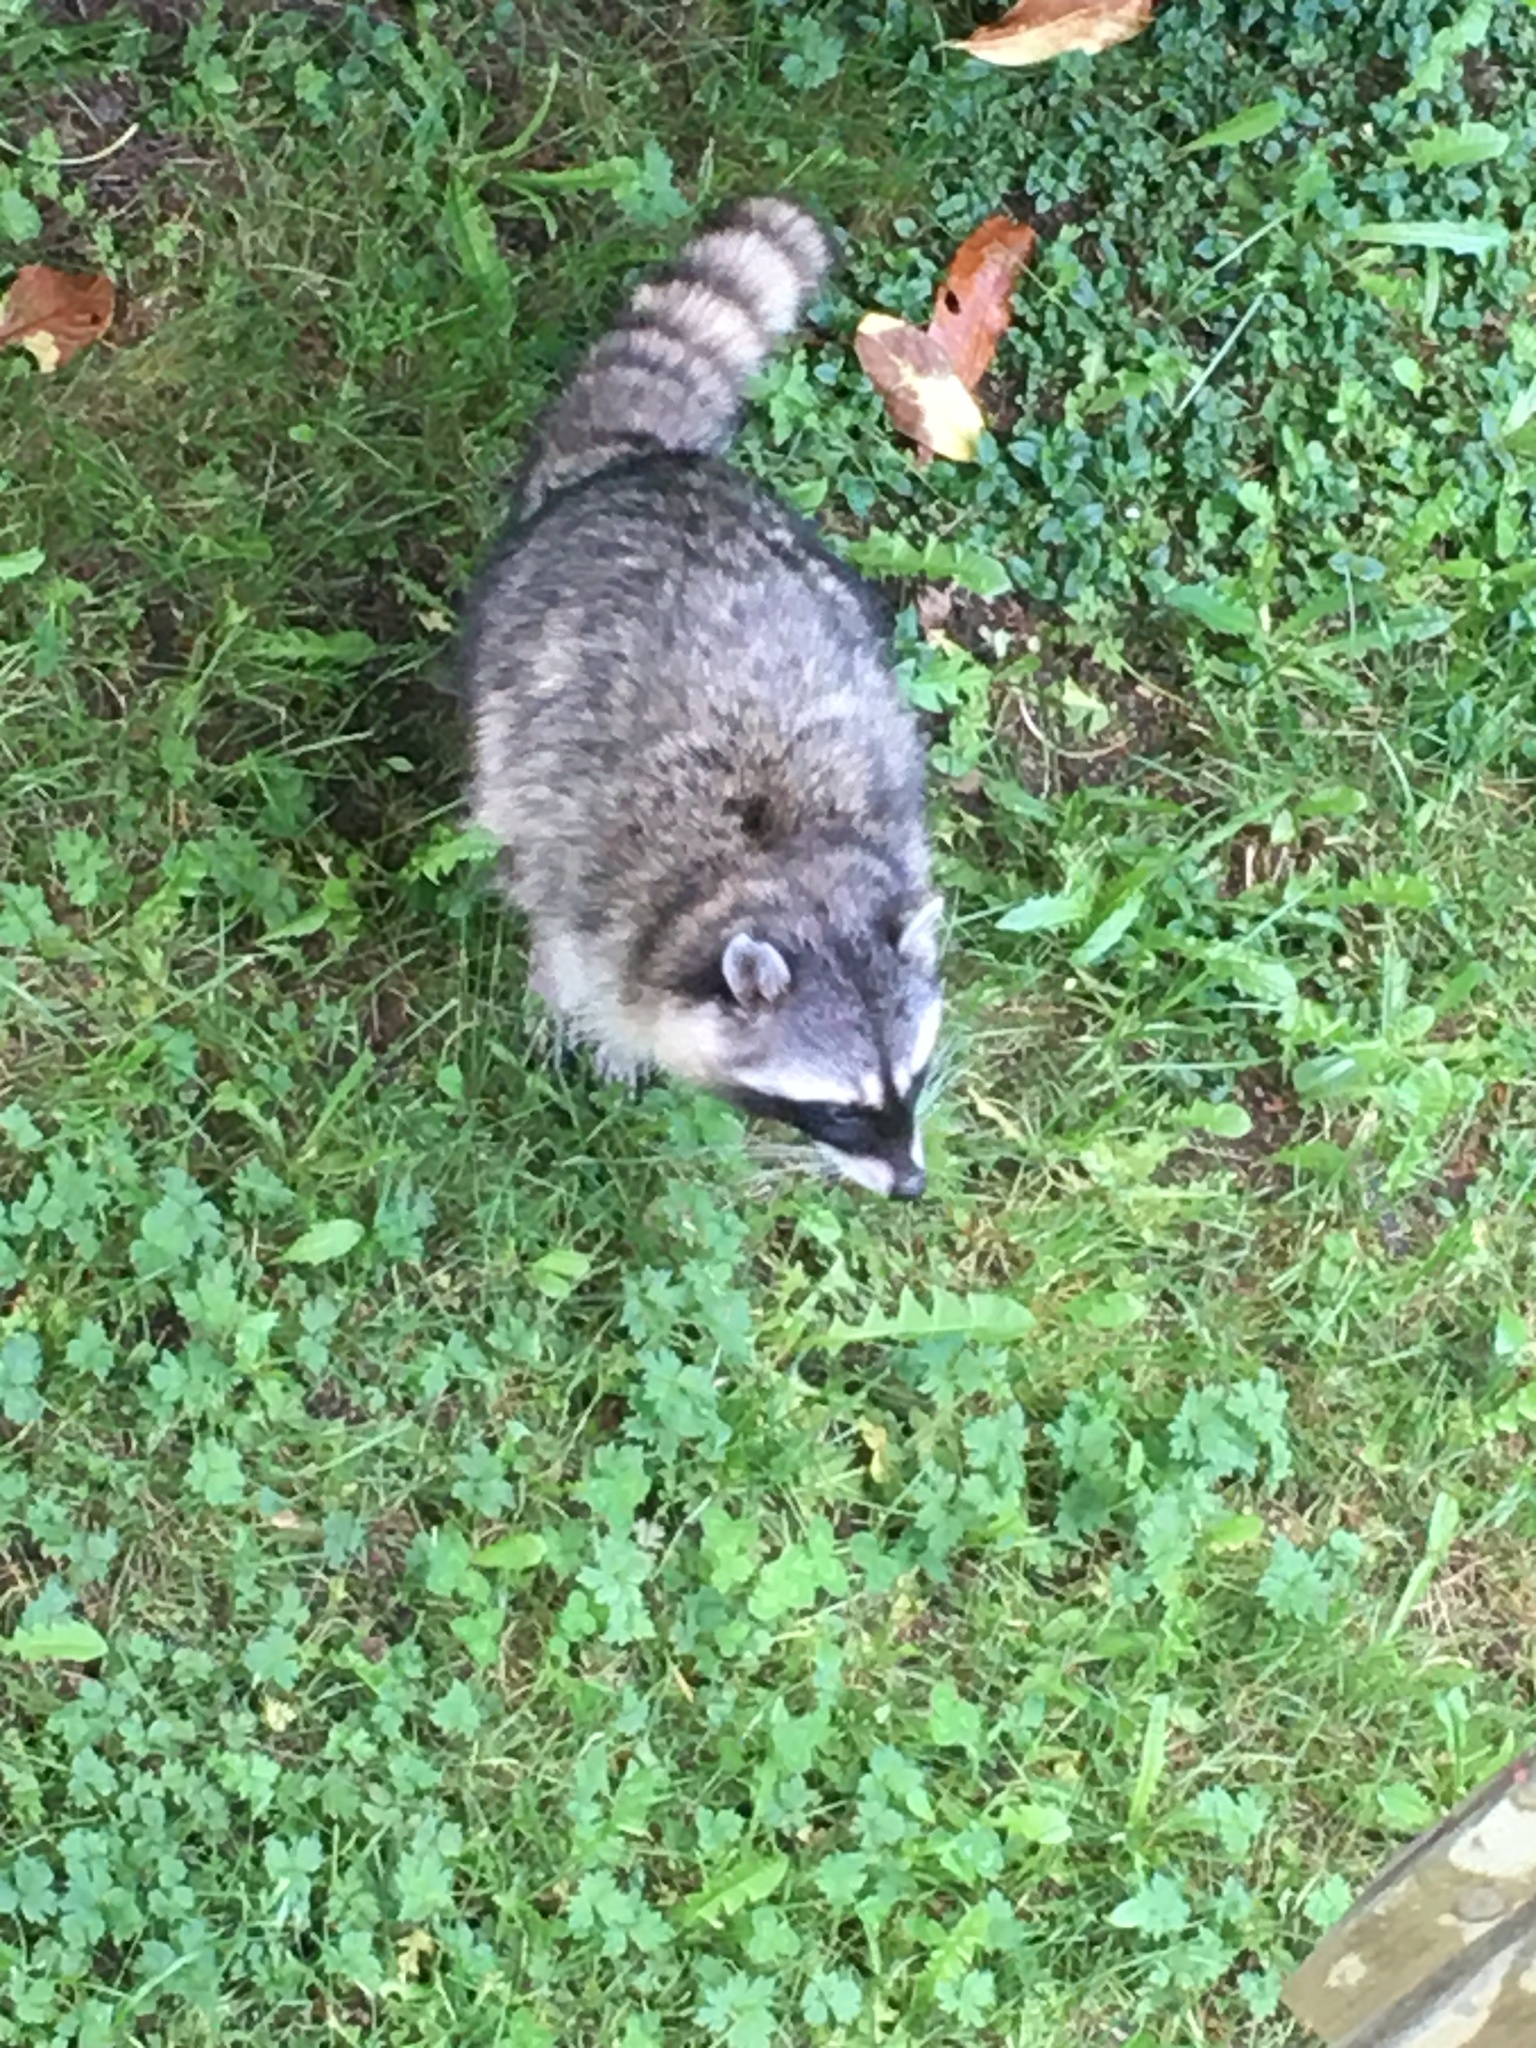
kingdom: Animalia
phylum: Chordata
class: Mammalia
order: Carnivora
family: Procyonidae
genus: Procyon
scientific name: Procyon lotor
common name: Raccoon
